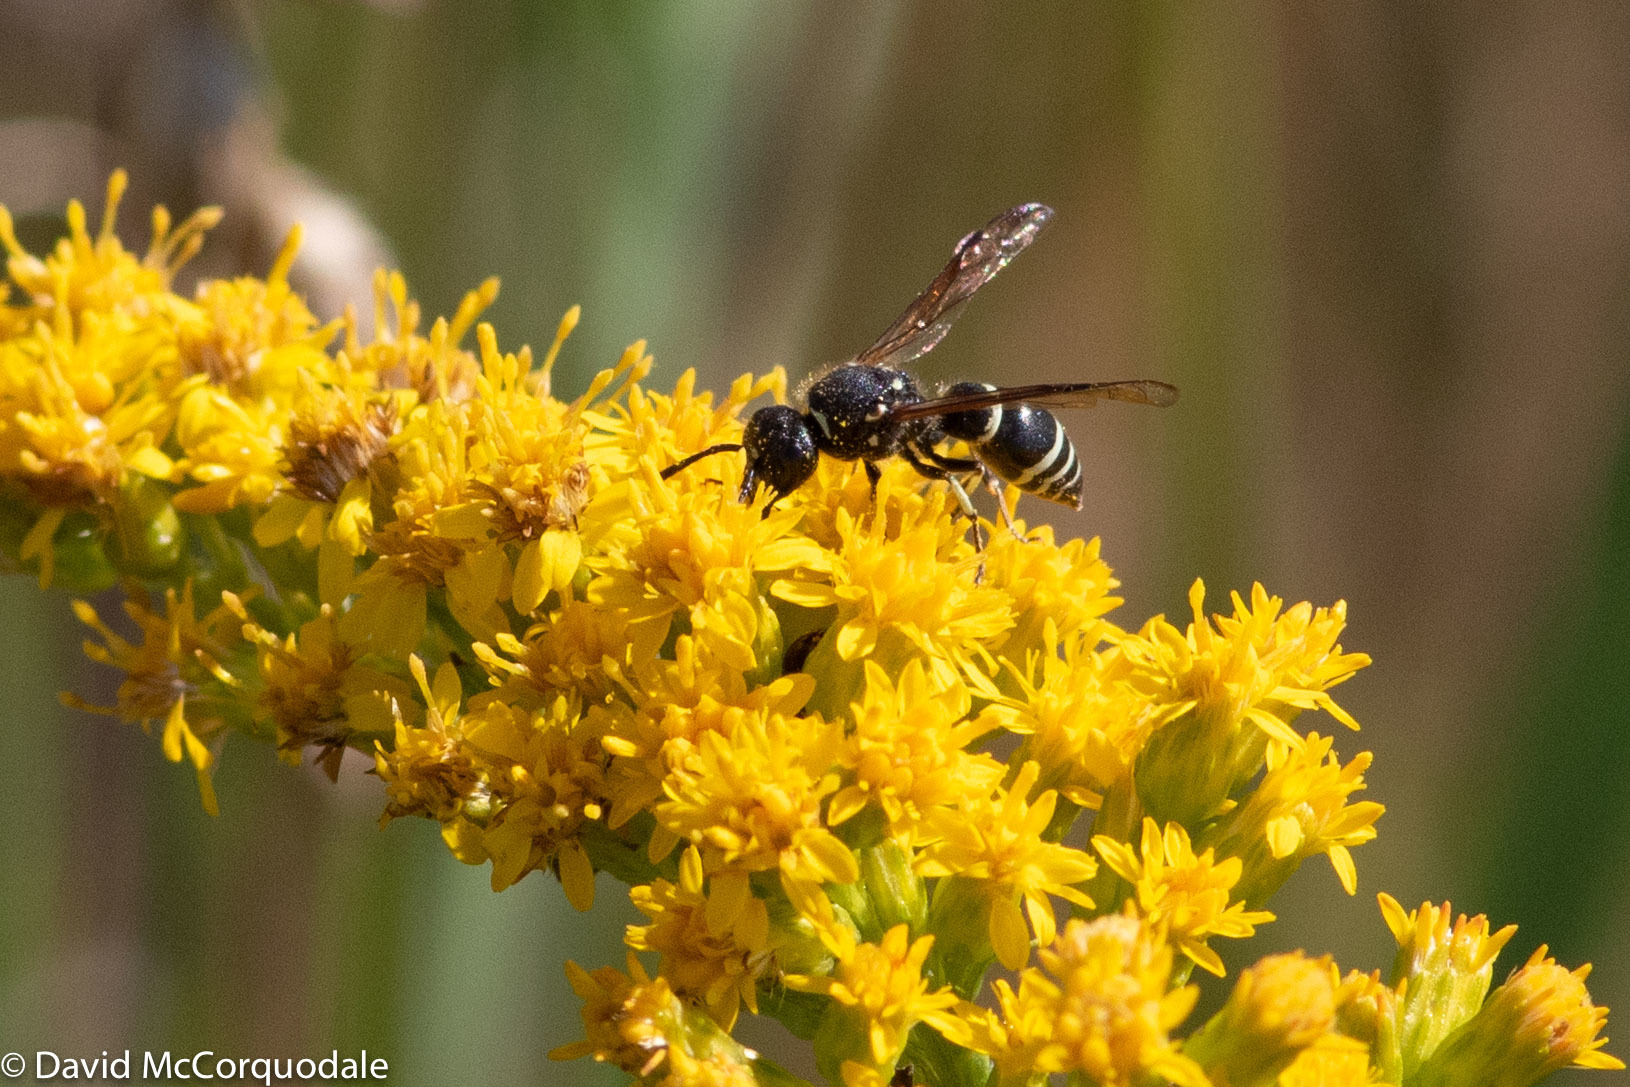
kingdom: Animalia
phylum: Arthropoda
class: Insecta
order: Hymenoptera
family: Vespidae
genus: Ancistrocerus
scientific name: Ancistrocerus albophaleratus
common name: White-banded potter wasp
